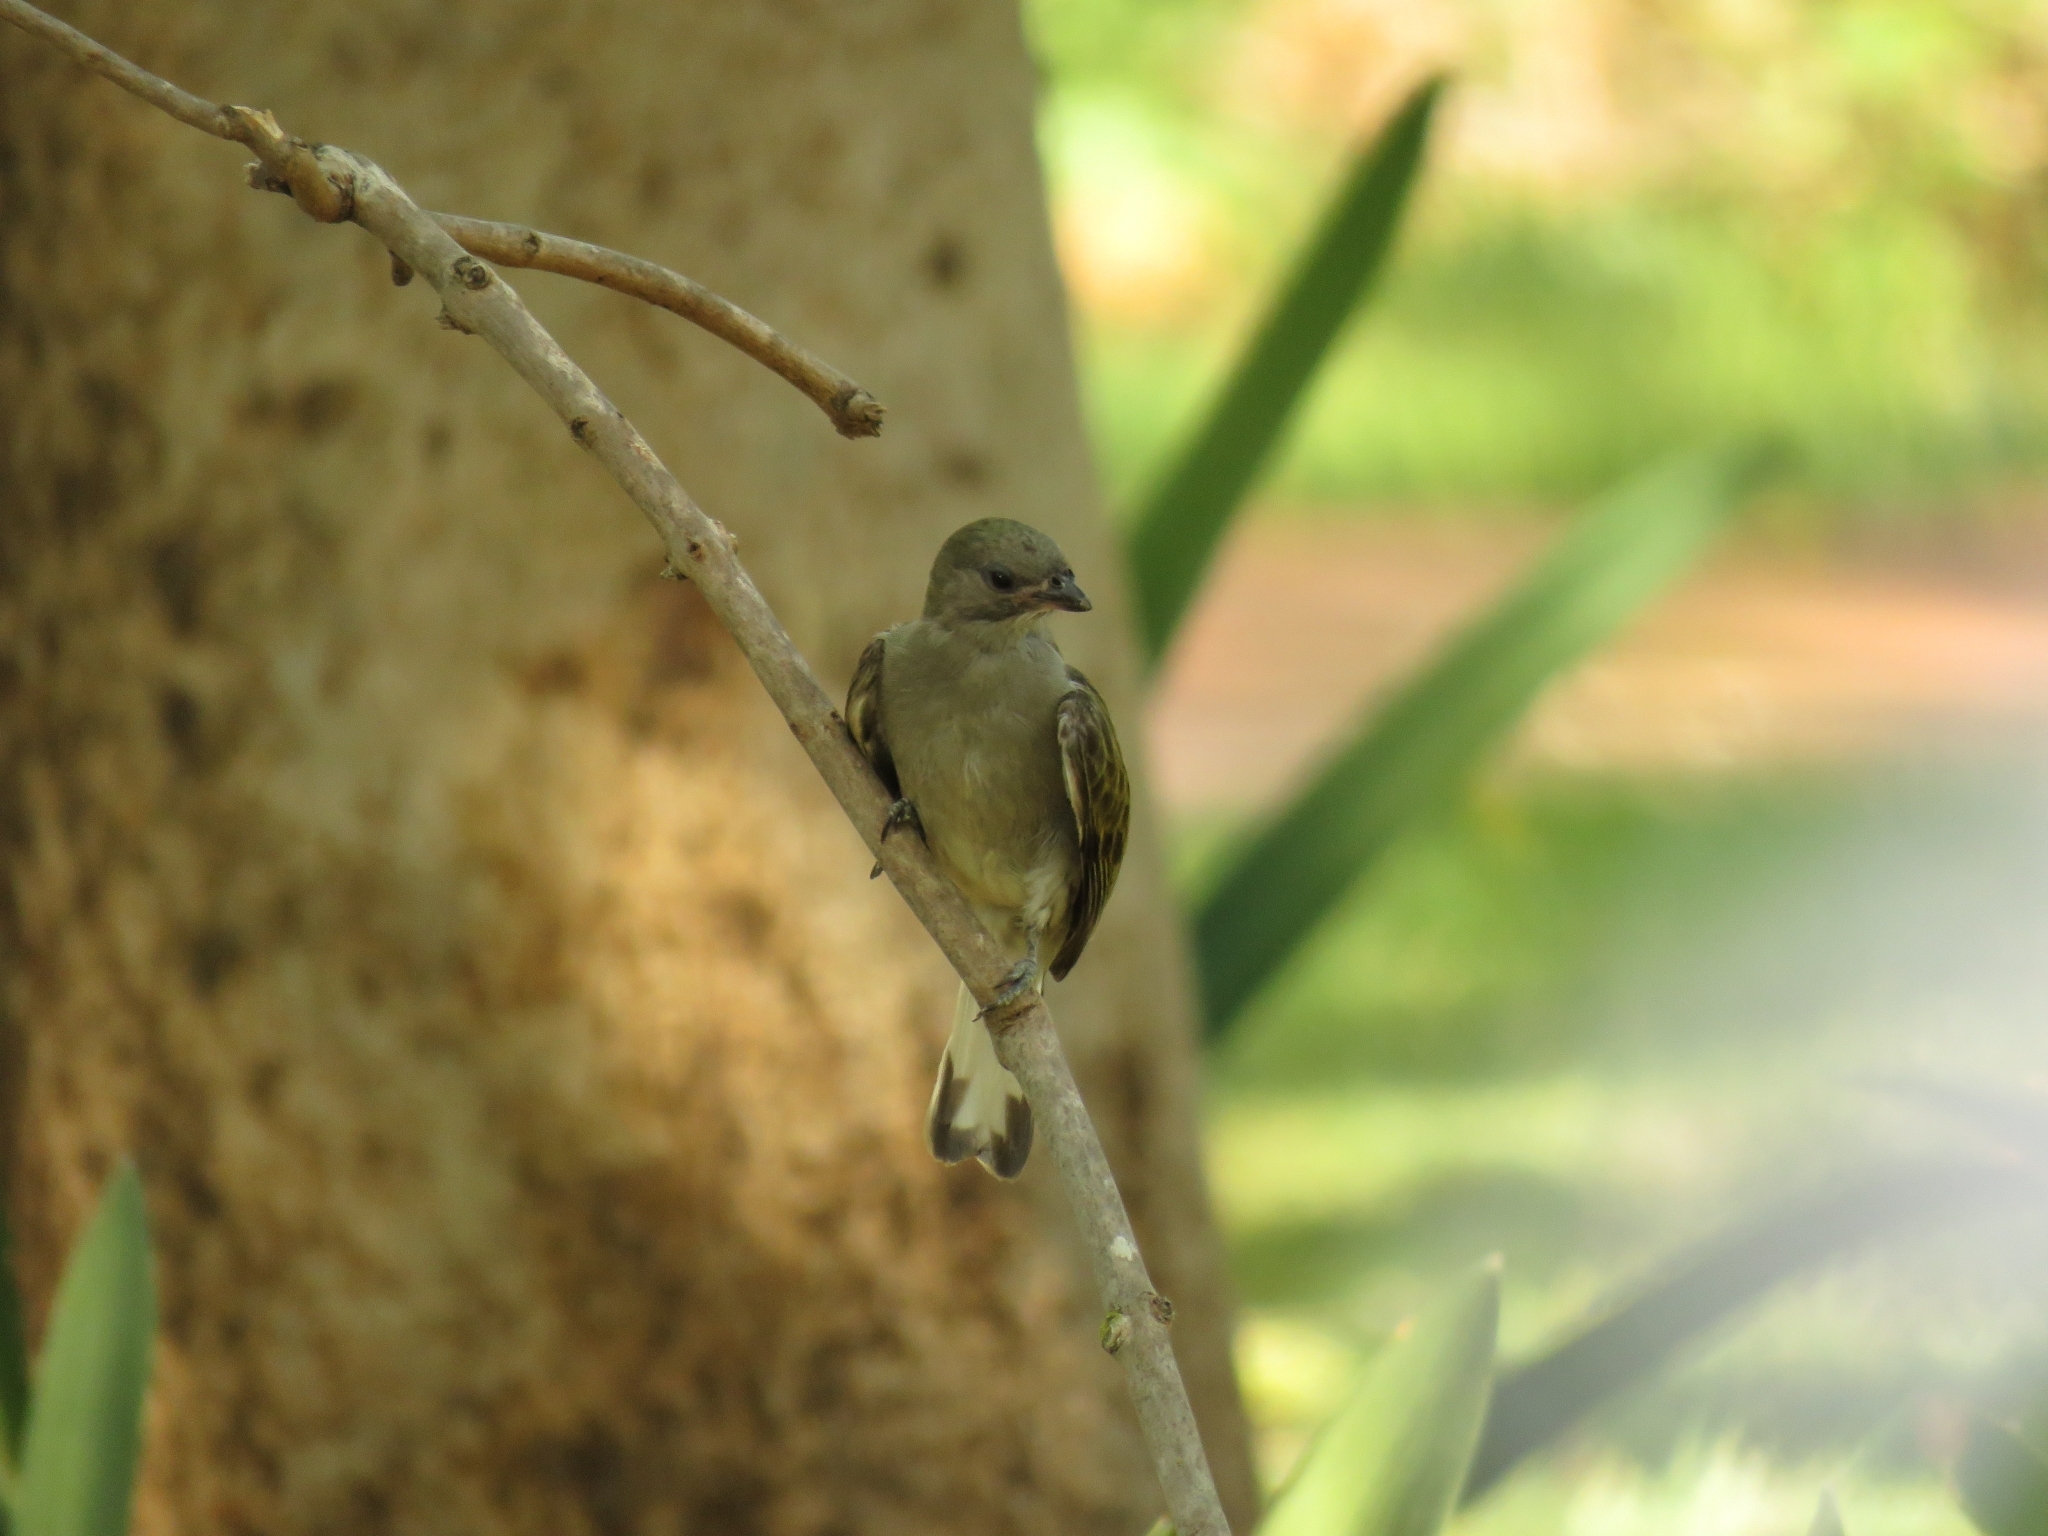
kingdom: Animalia
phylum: Chordata
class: Aves
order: Piciformes
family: Indicatoridae
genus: Indicator
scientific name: Indicator minor
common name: Lesser honeyguide
